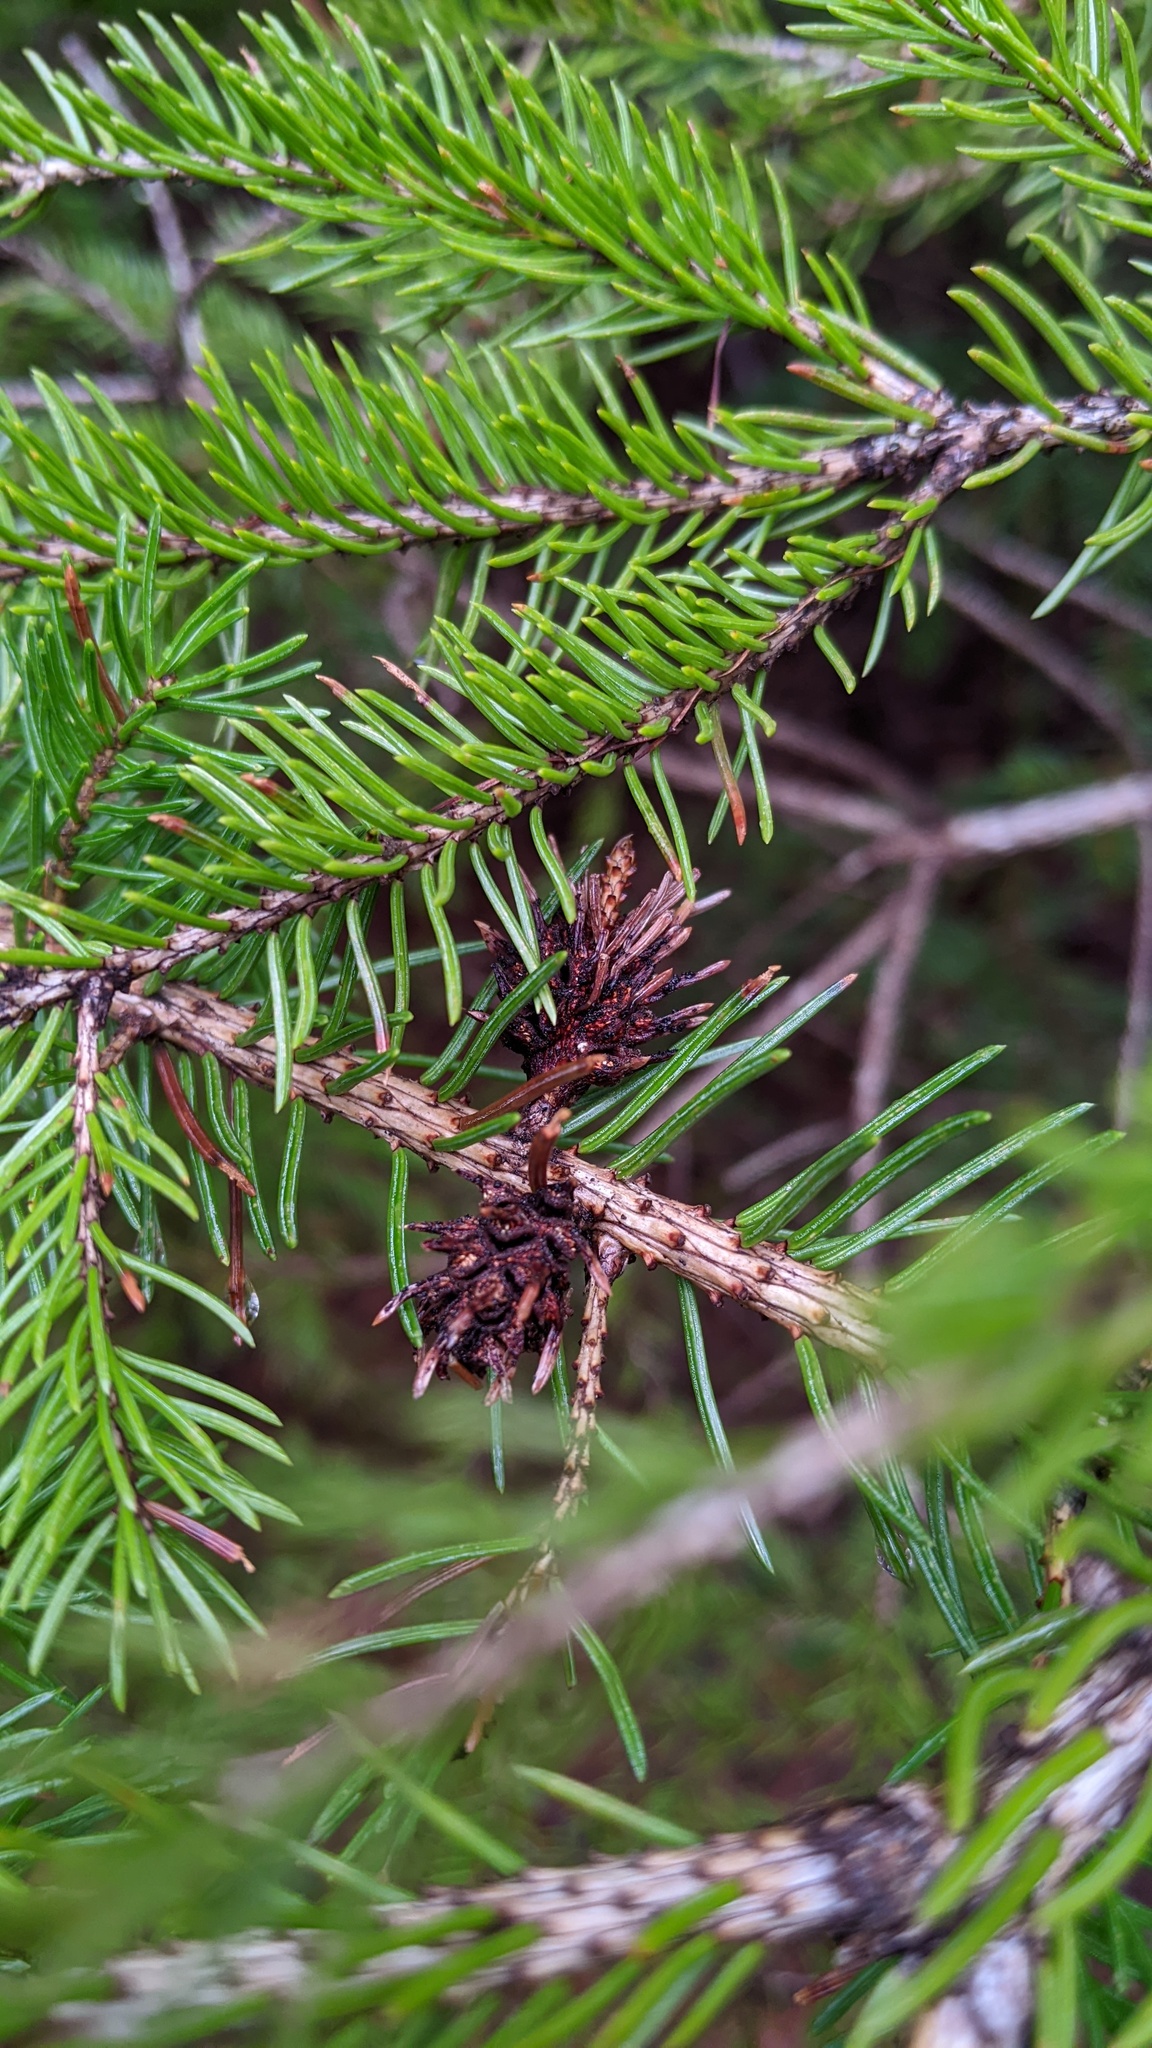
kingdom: Animalia
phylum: Arthropoda
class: Insecta
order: Hemiptera
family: Adelgidae
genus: Adelges
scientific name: Adelges abietis
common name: Eastern spruce gall adelgid
